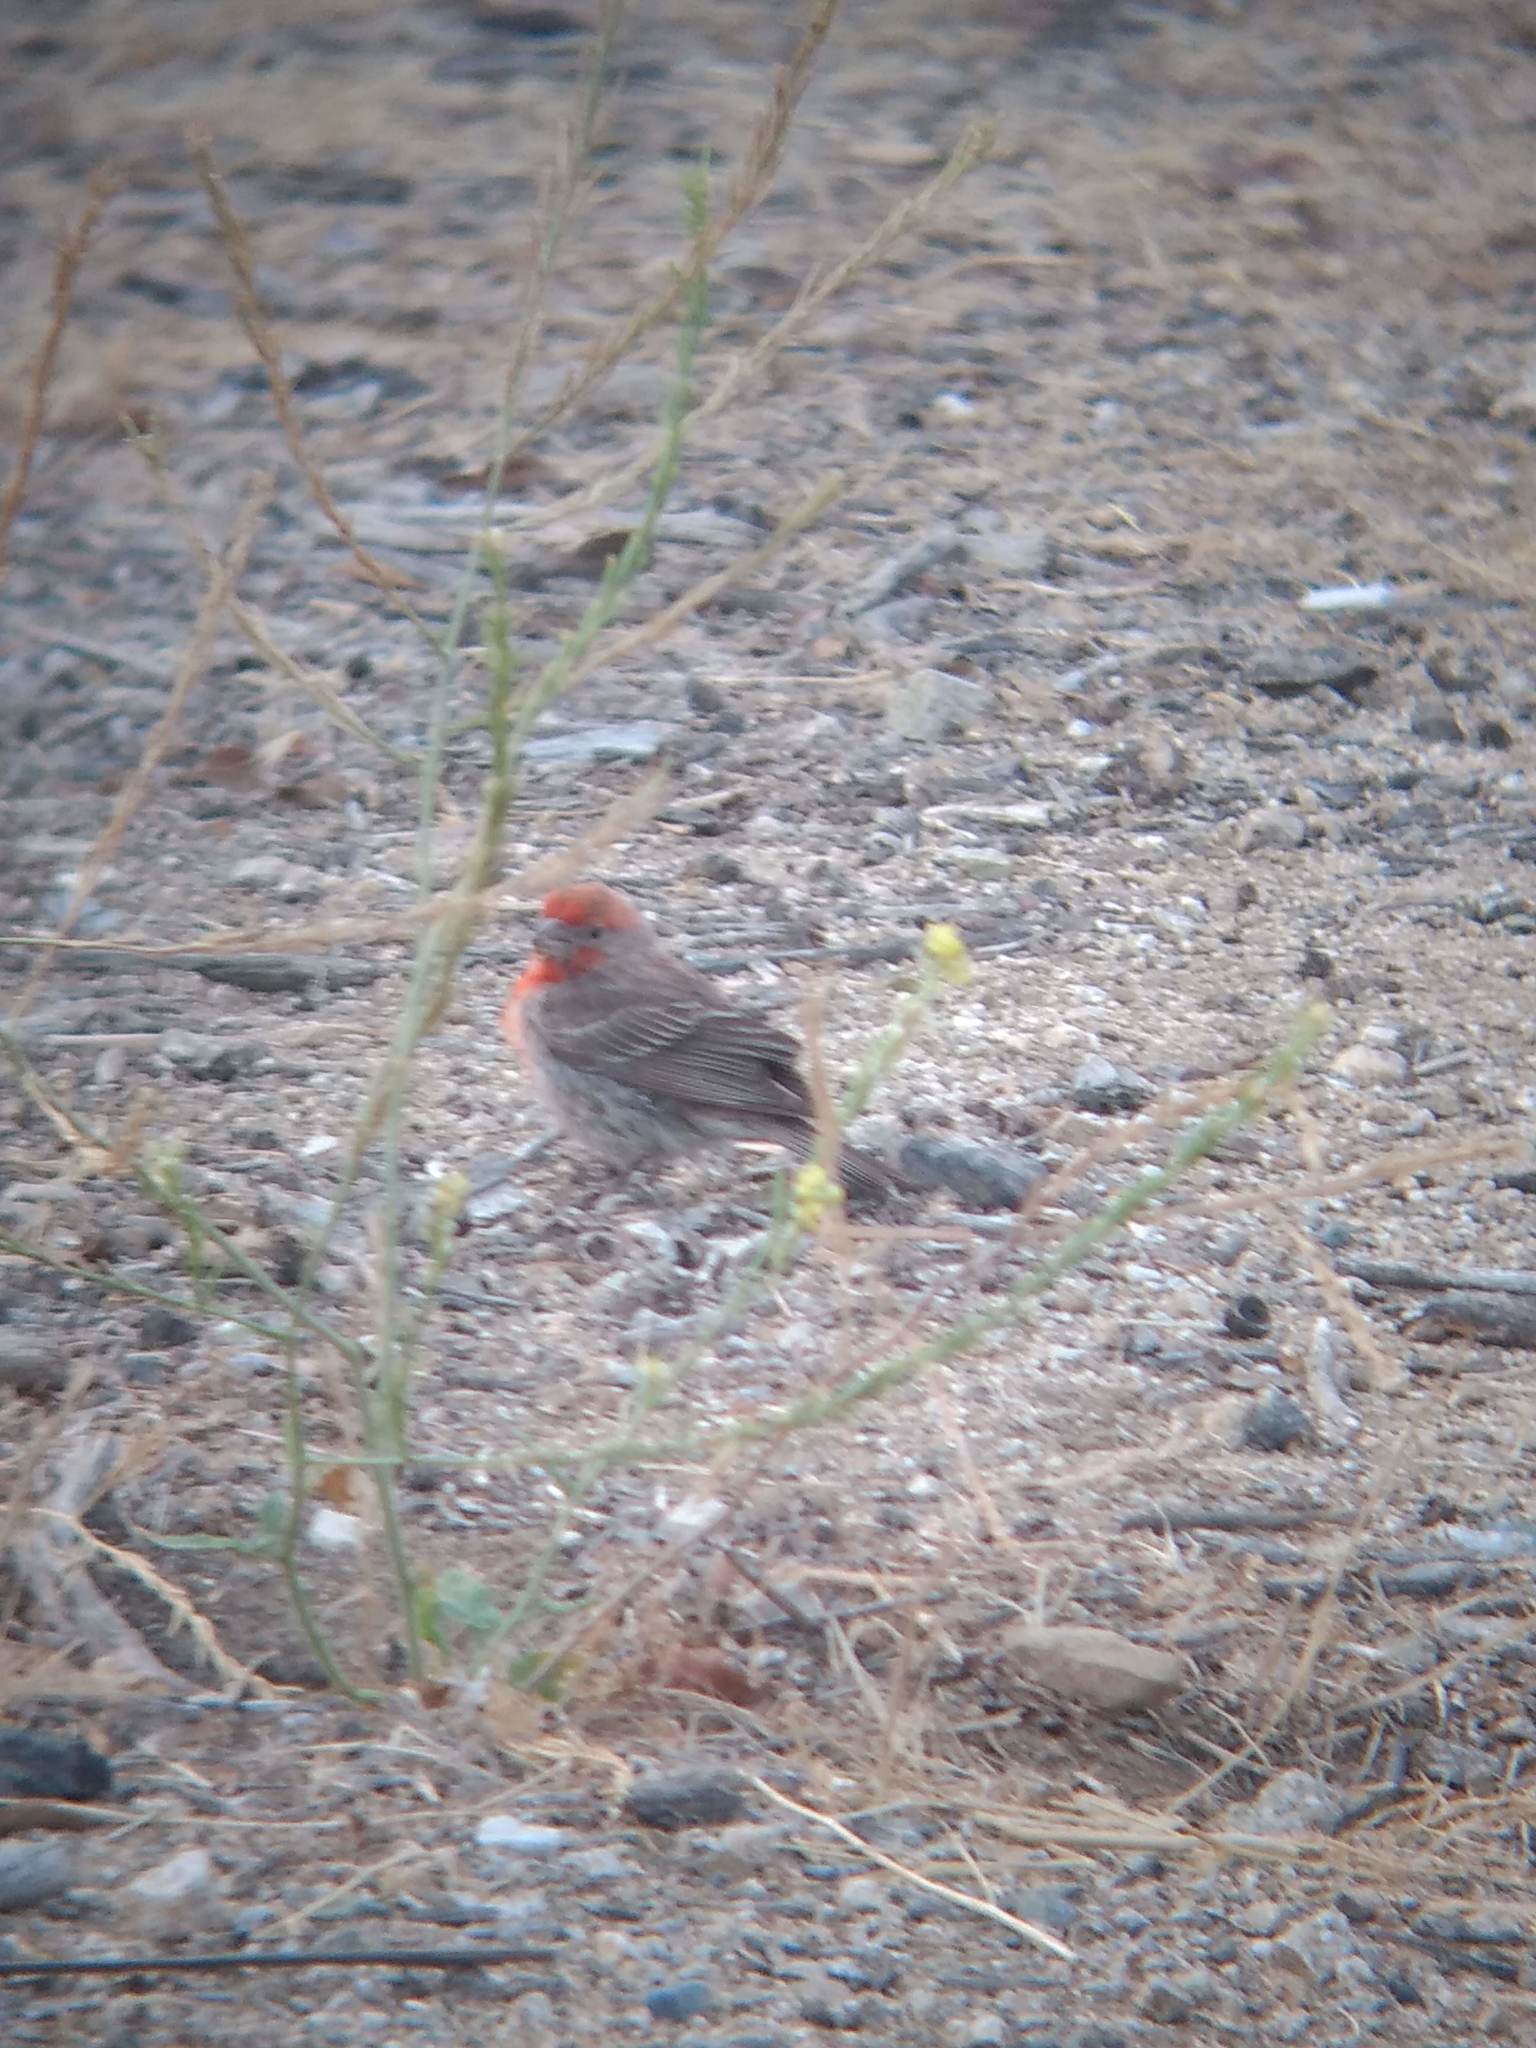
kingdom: Animalia
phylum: Chordata
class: Aves
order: Passeriformes
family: Fringillidae
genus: Haemorhous
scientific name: Haemorhous mexicanus
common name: House finch
